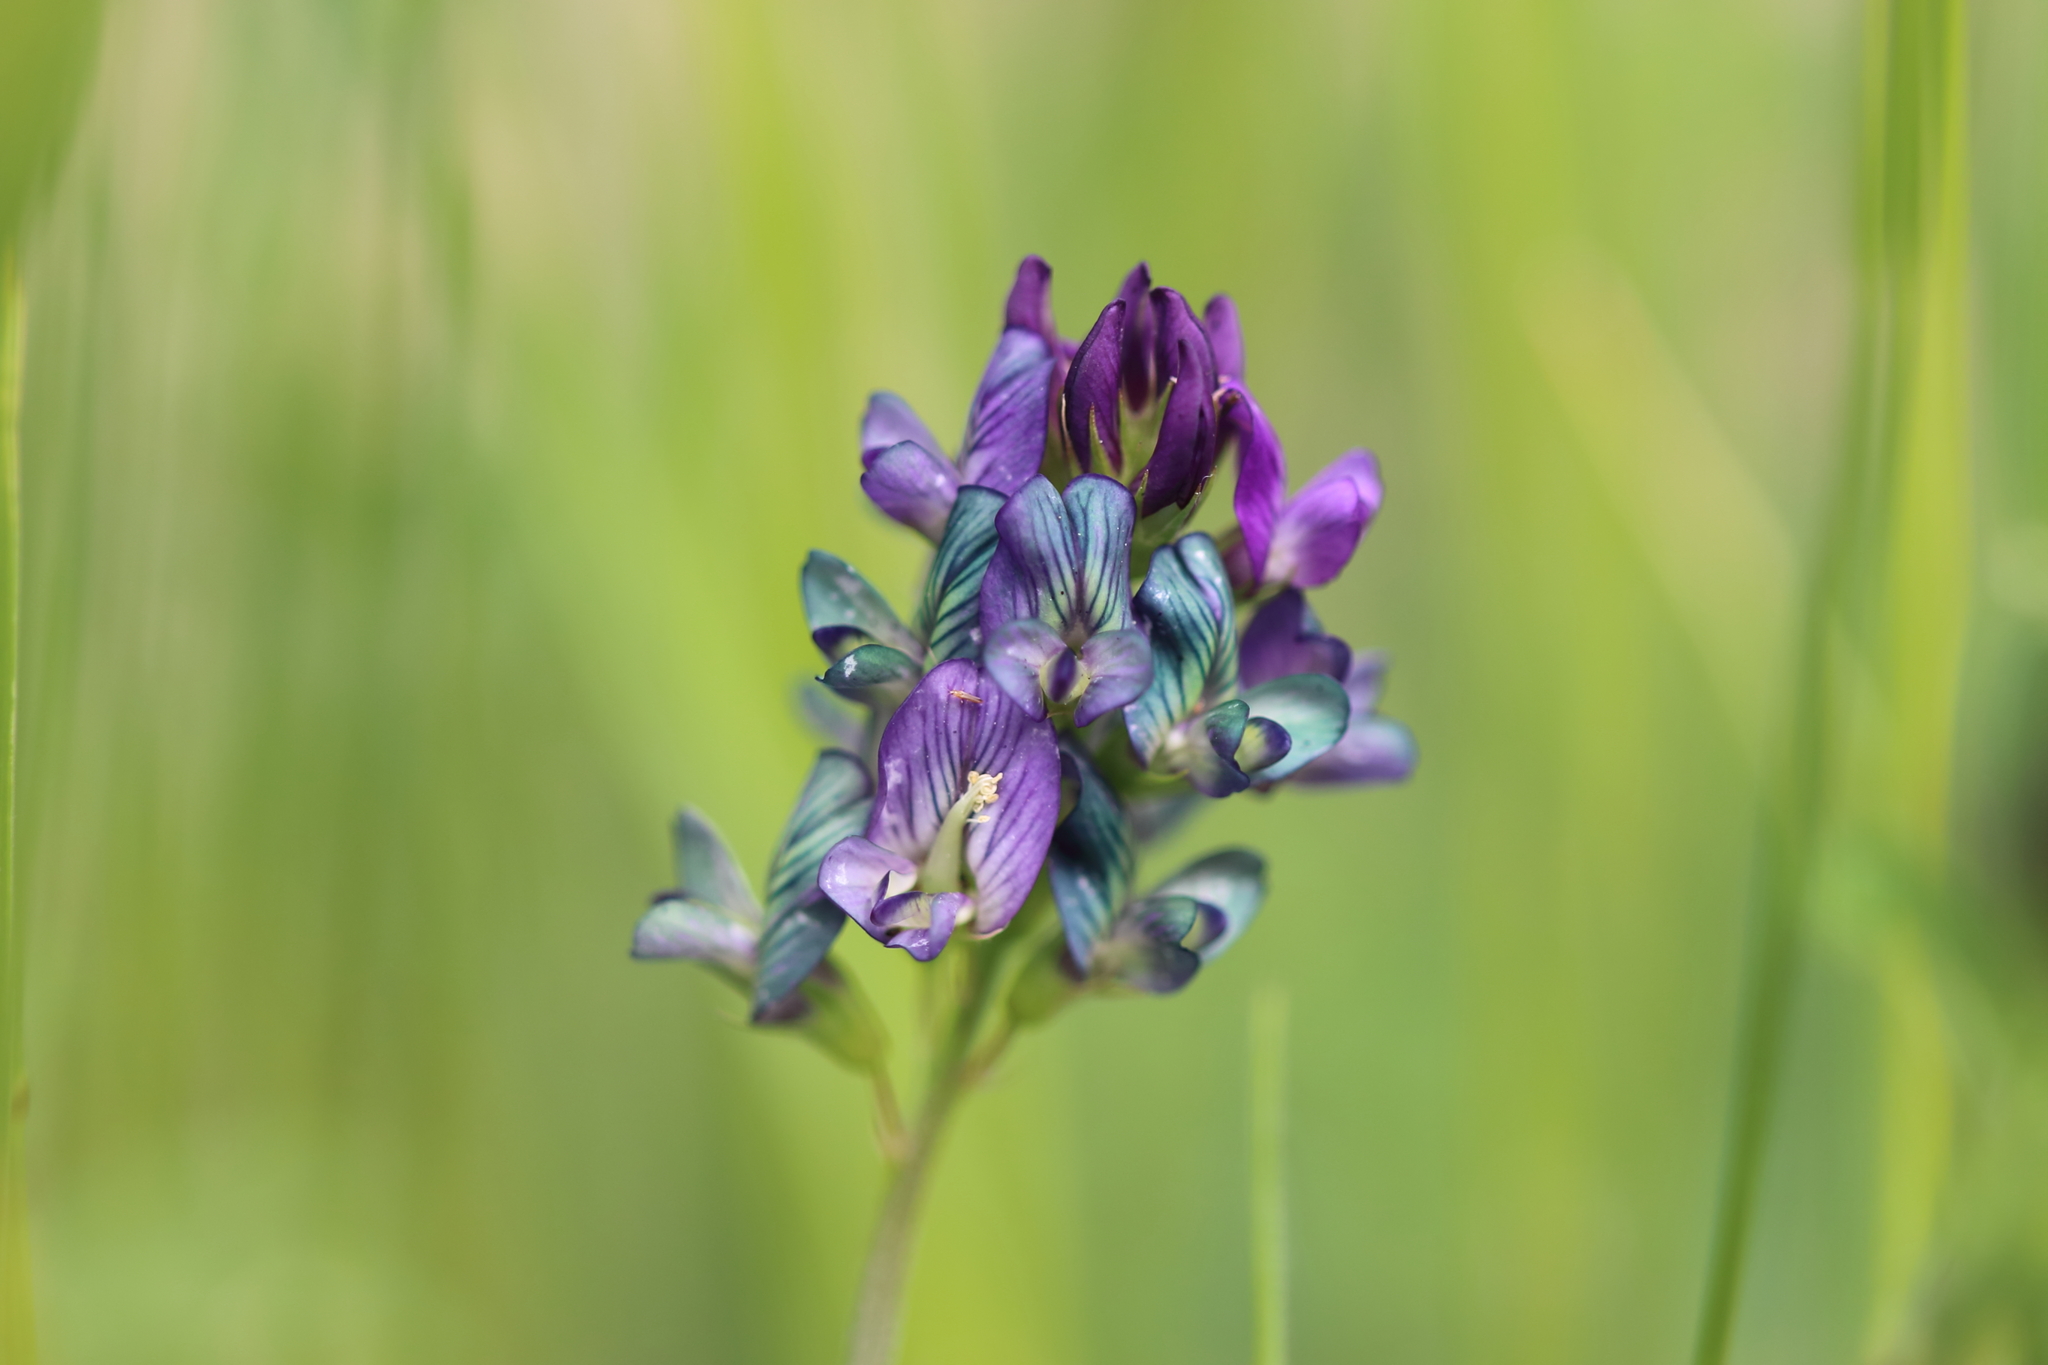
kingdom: Plantae
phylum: Tracheophyta
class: Magnoliopsida
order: Fabales
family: Fabaceae
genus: Medicago
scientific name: Medicago sativa
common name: Alfalfa
